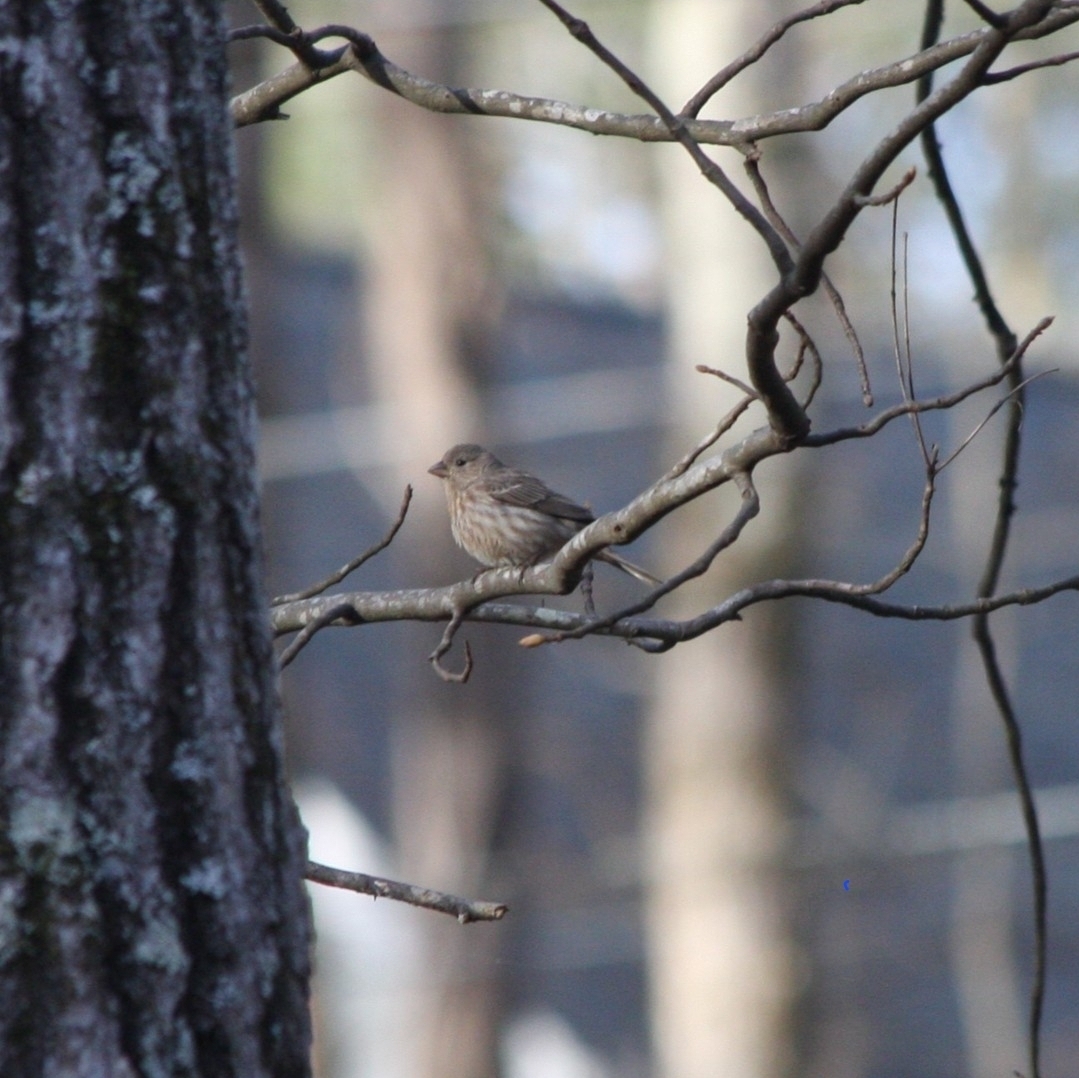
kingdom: Animalia
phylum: Chordata
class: Aves
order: Passeriformes
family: Fringillidae
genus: Haemorhous
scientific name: Haemorhous mexicanus
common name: House finch
